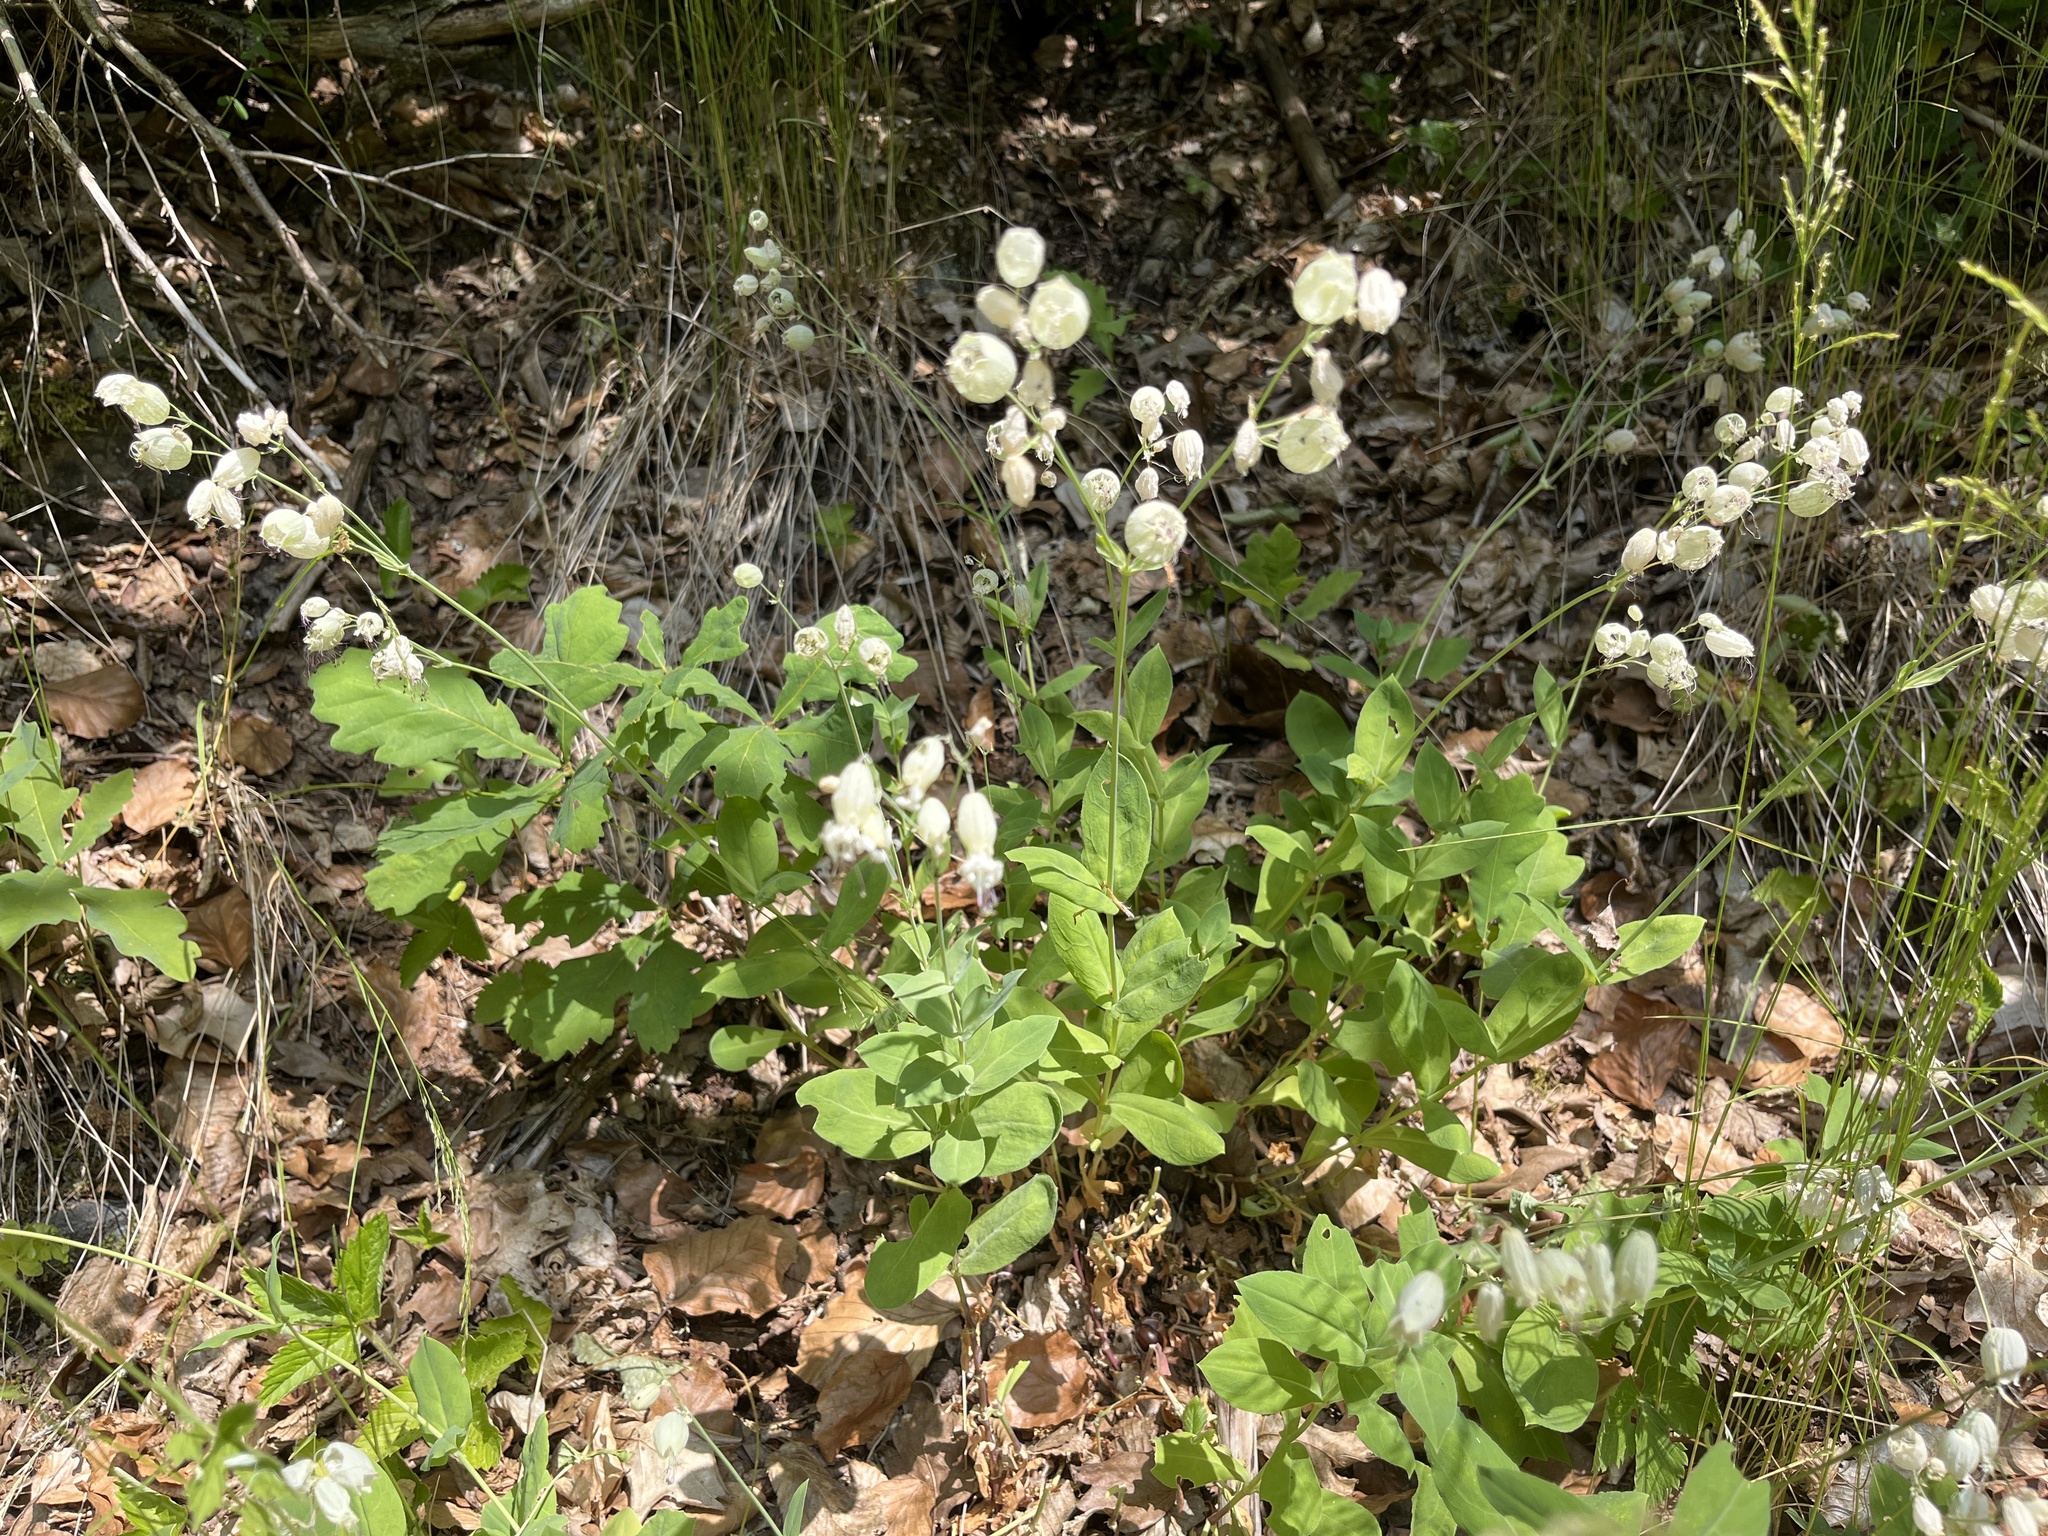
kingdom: Plantae
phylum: Tracheophyta
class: Magnoliopsida
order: Caryophyllales
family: Caryophyllaceae
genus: Silene
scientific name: Silene vulgaris
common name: Bladder campion
